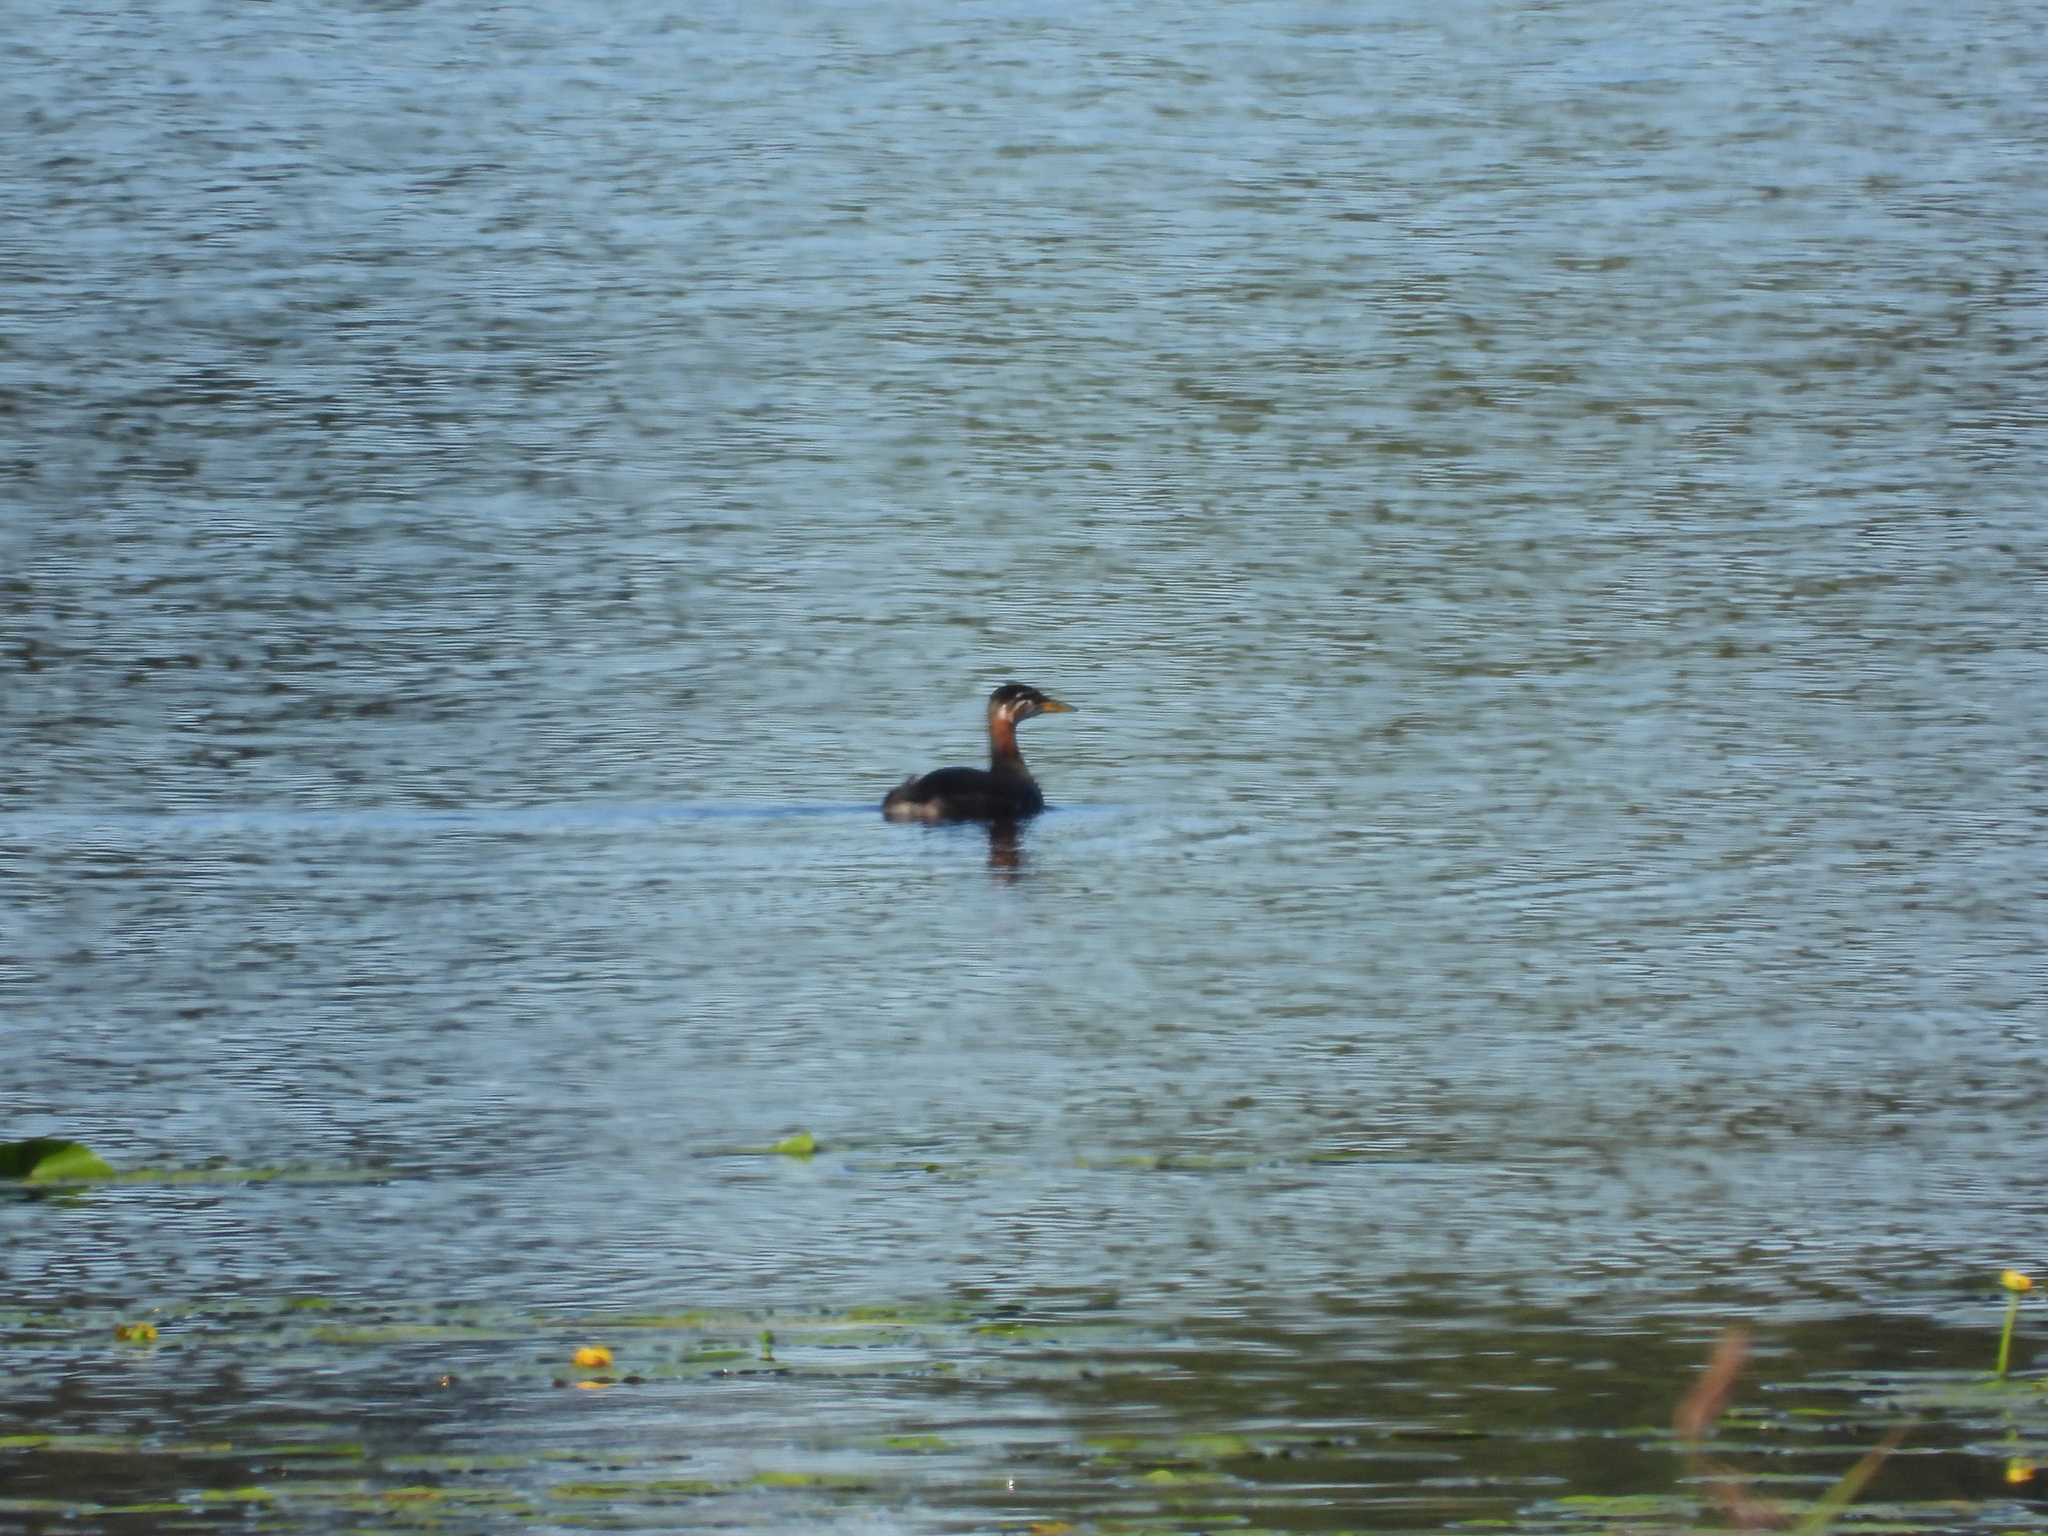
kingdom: Animalia
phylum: Chordata
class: Aves
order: Podicipediformes
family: Podicipedidae
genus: Podiceps
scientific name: Podiceps grisegena
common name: Red-necked grebe
